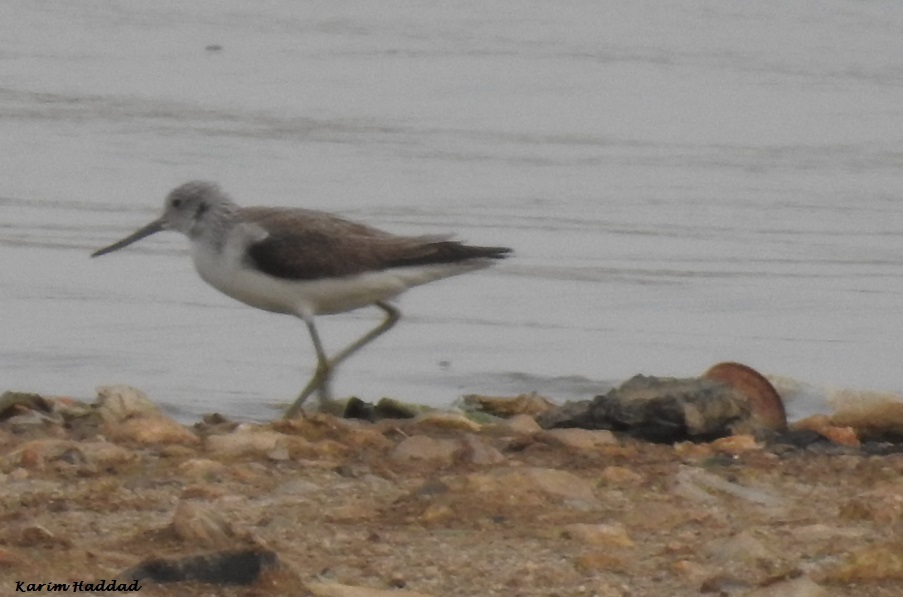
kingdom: Animalia
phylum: Chordata
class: Aves
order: Charadriiformes
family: Scolopacidae
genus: Tringa
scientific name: Tringa nebularia
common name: Common greenshank
